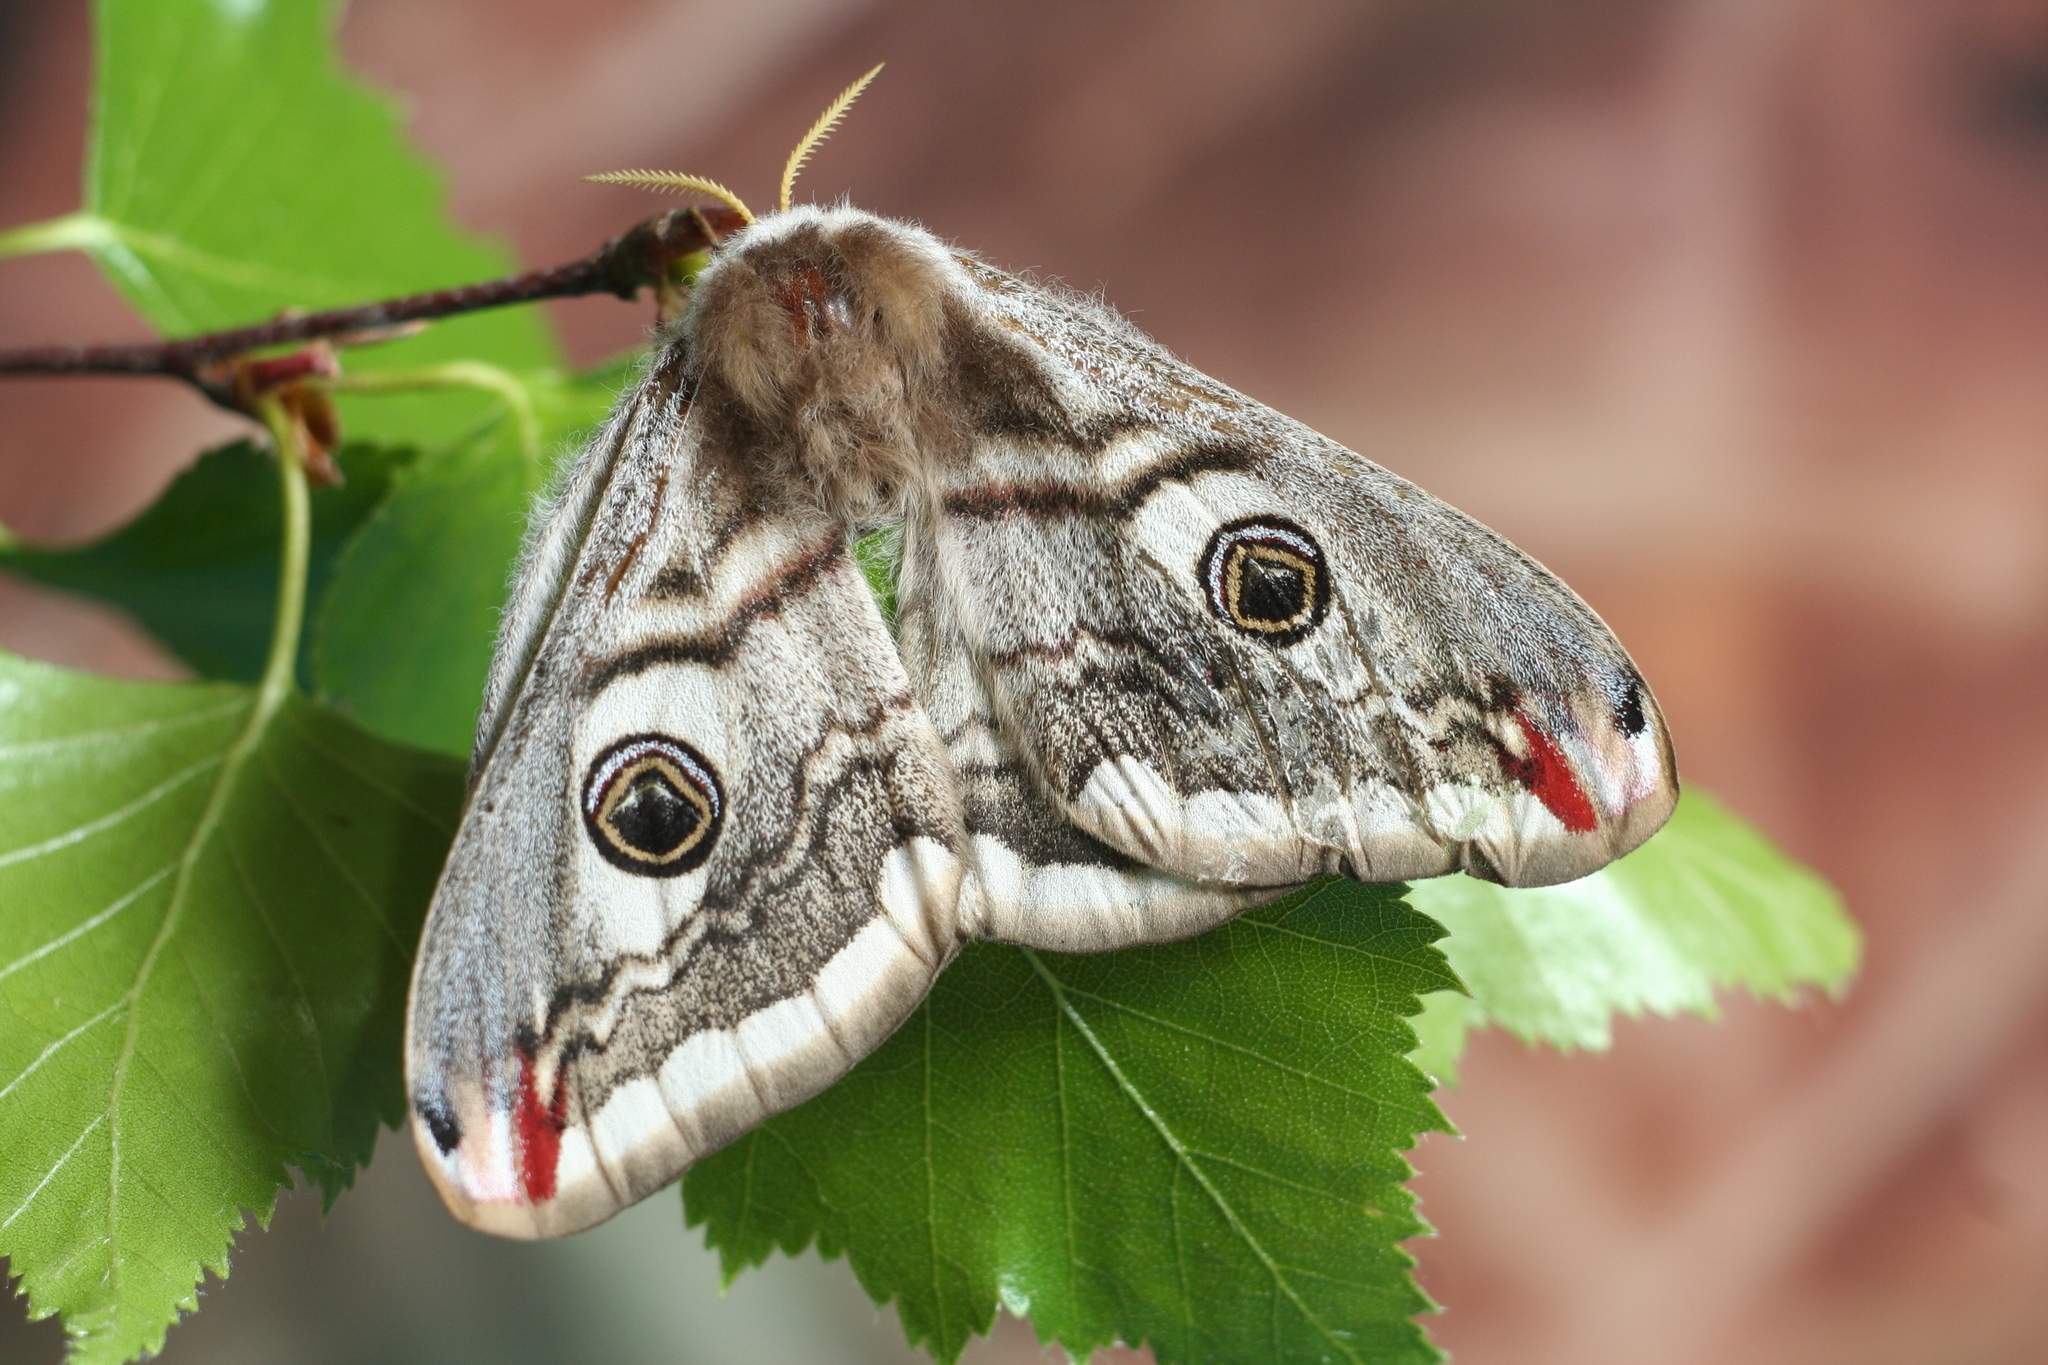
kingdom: Animalia
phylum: Arthropoda
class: Insecta
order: Lepidoptera
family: Saturniidae
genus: Saturnia
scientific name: Saturnia pavonia
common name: Emperor moth
